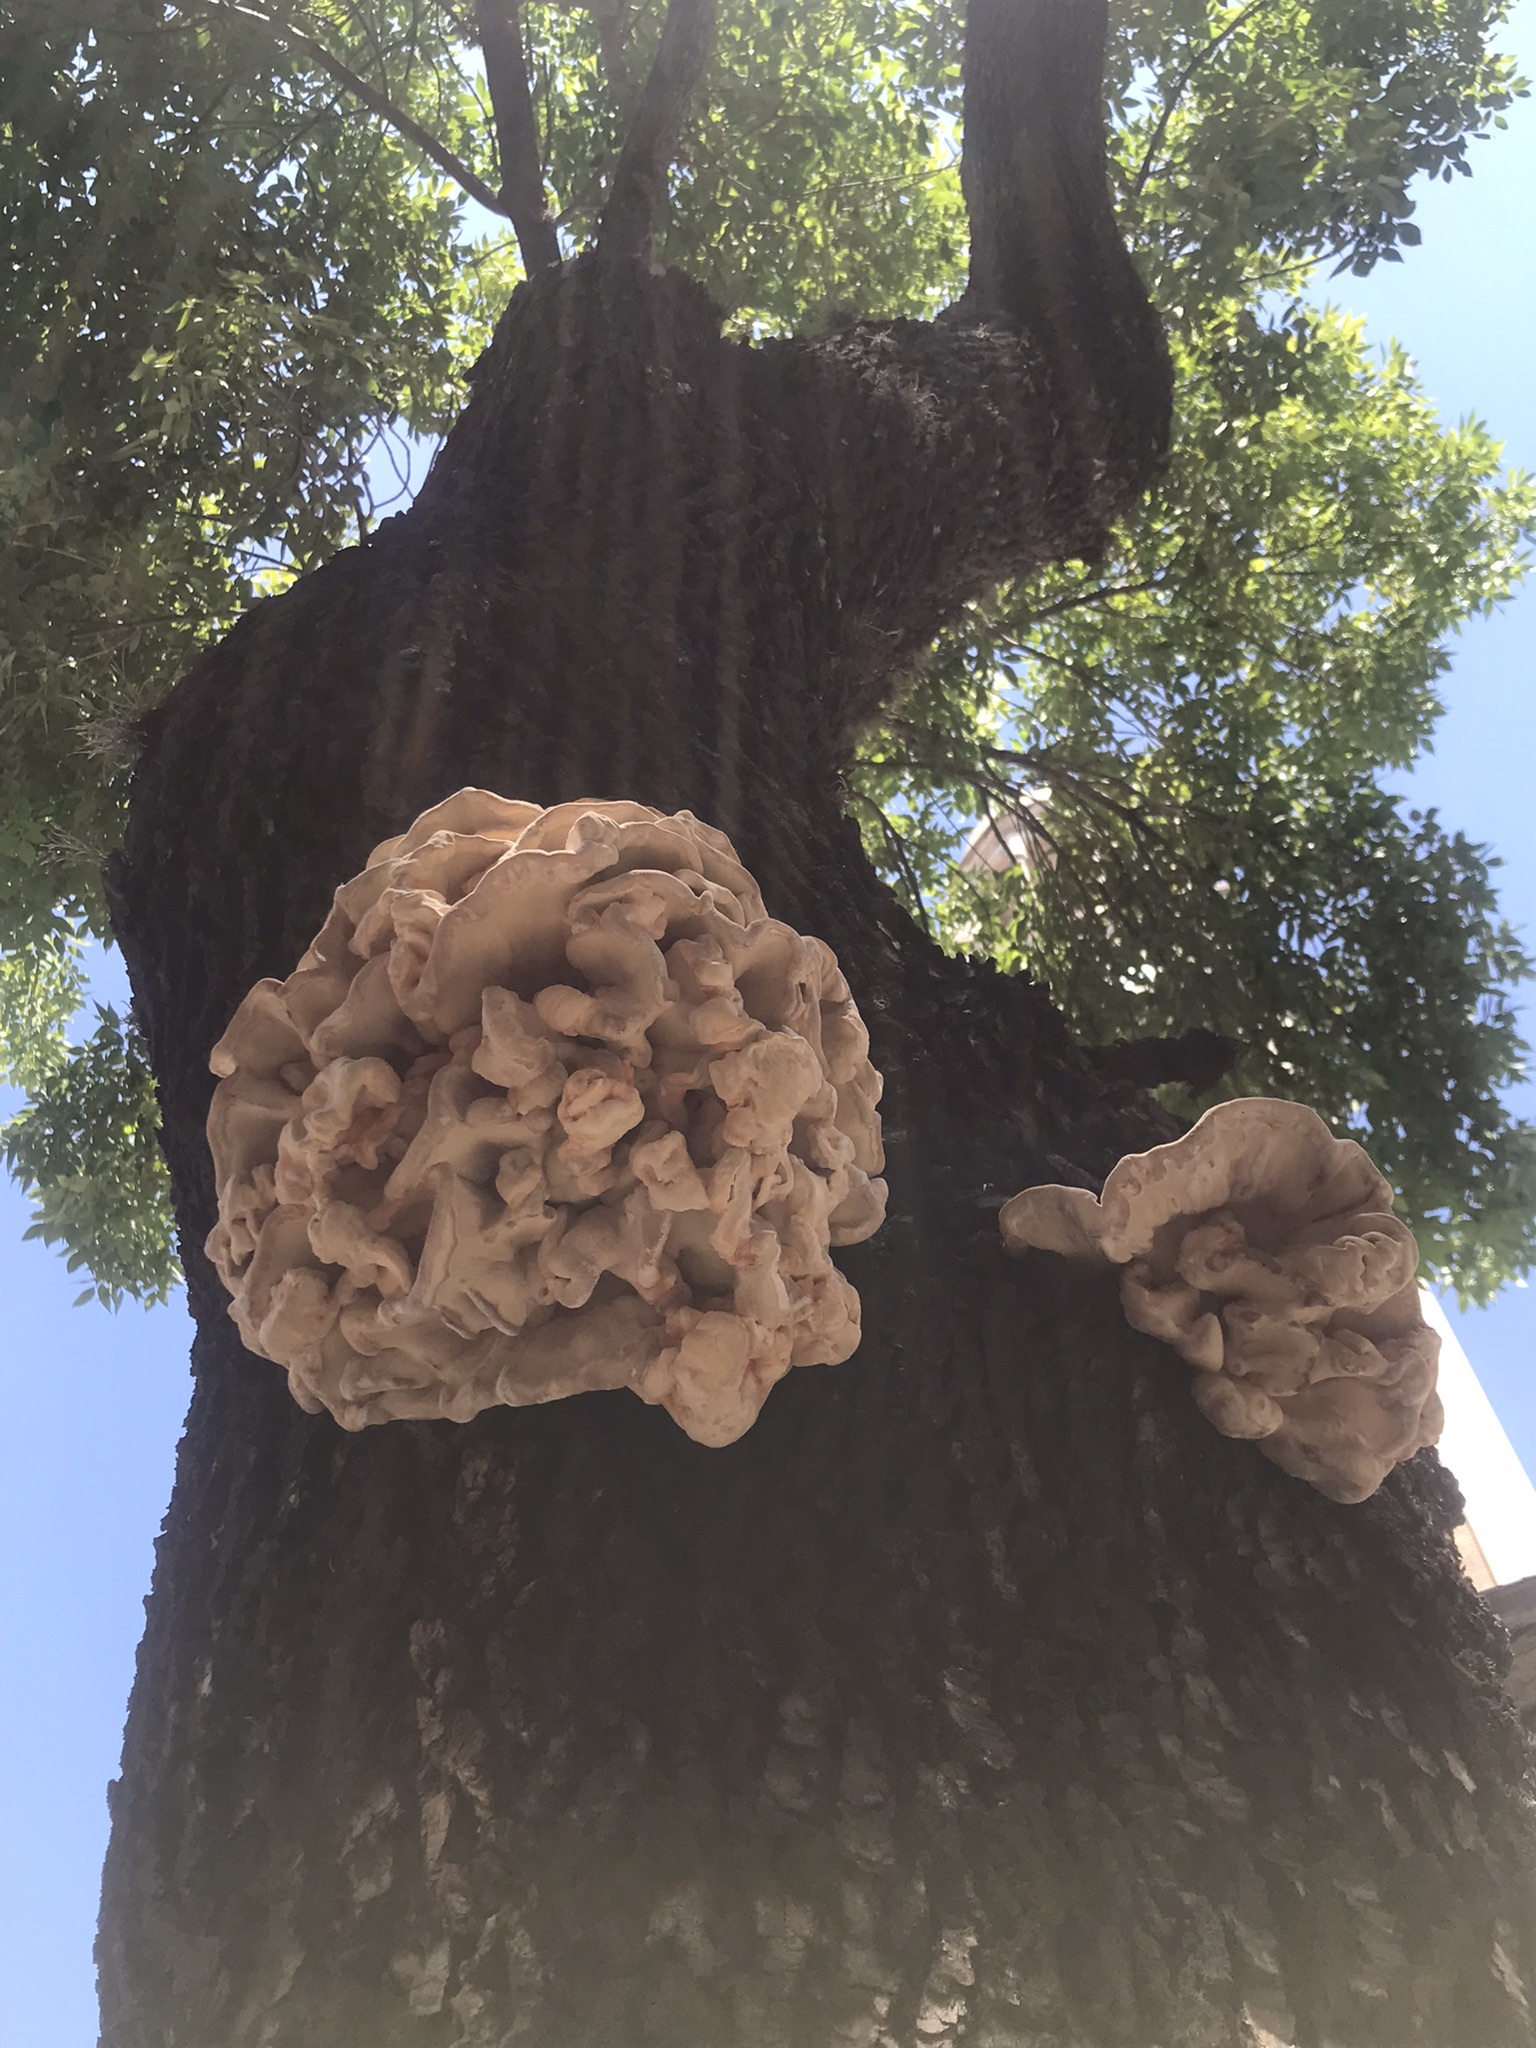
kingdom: Fungi
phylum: Basidiomycota
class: Agaricomycetes
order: Polyporales
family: Laetiporaceae
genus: Laetiporus
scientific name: Laetiporus sulphureus
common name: Chicken of the woods
